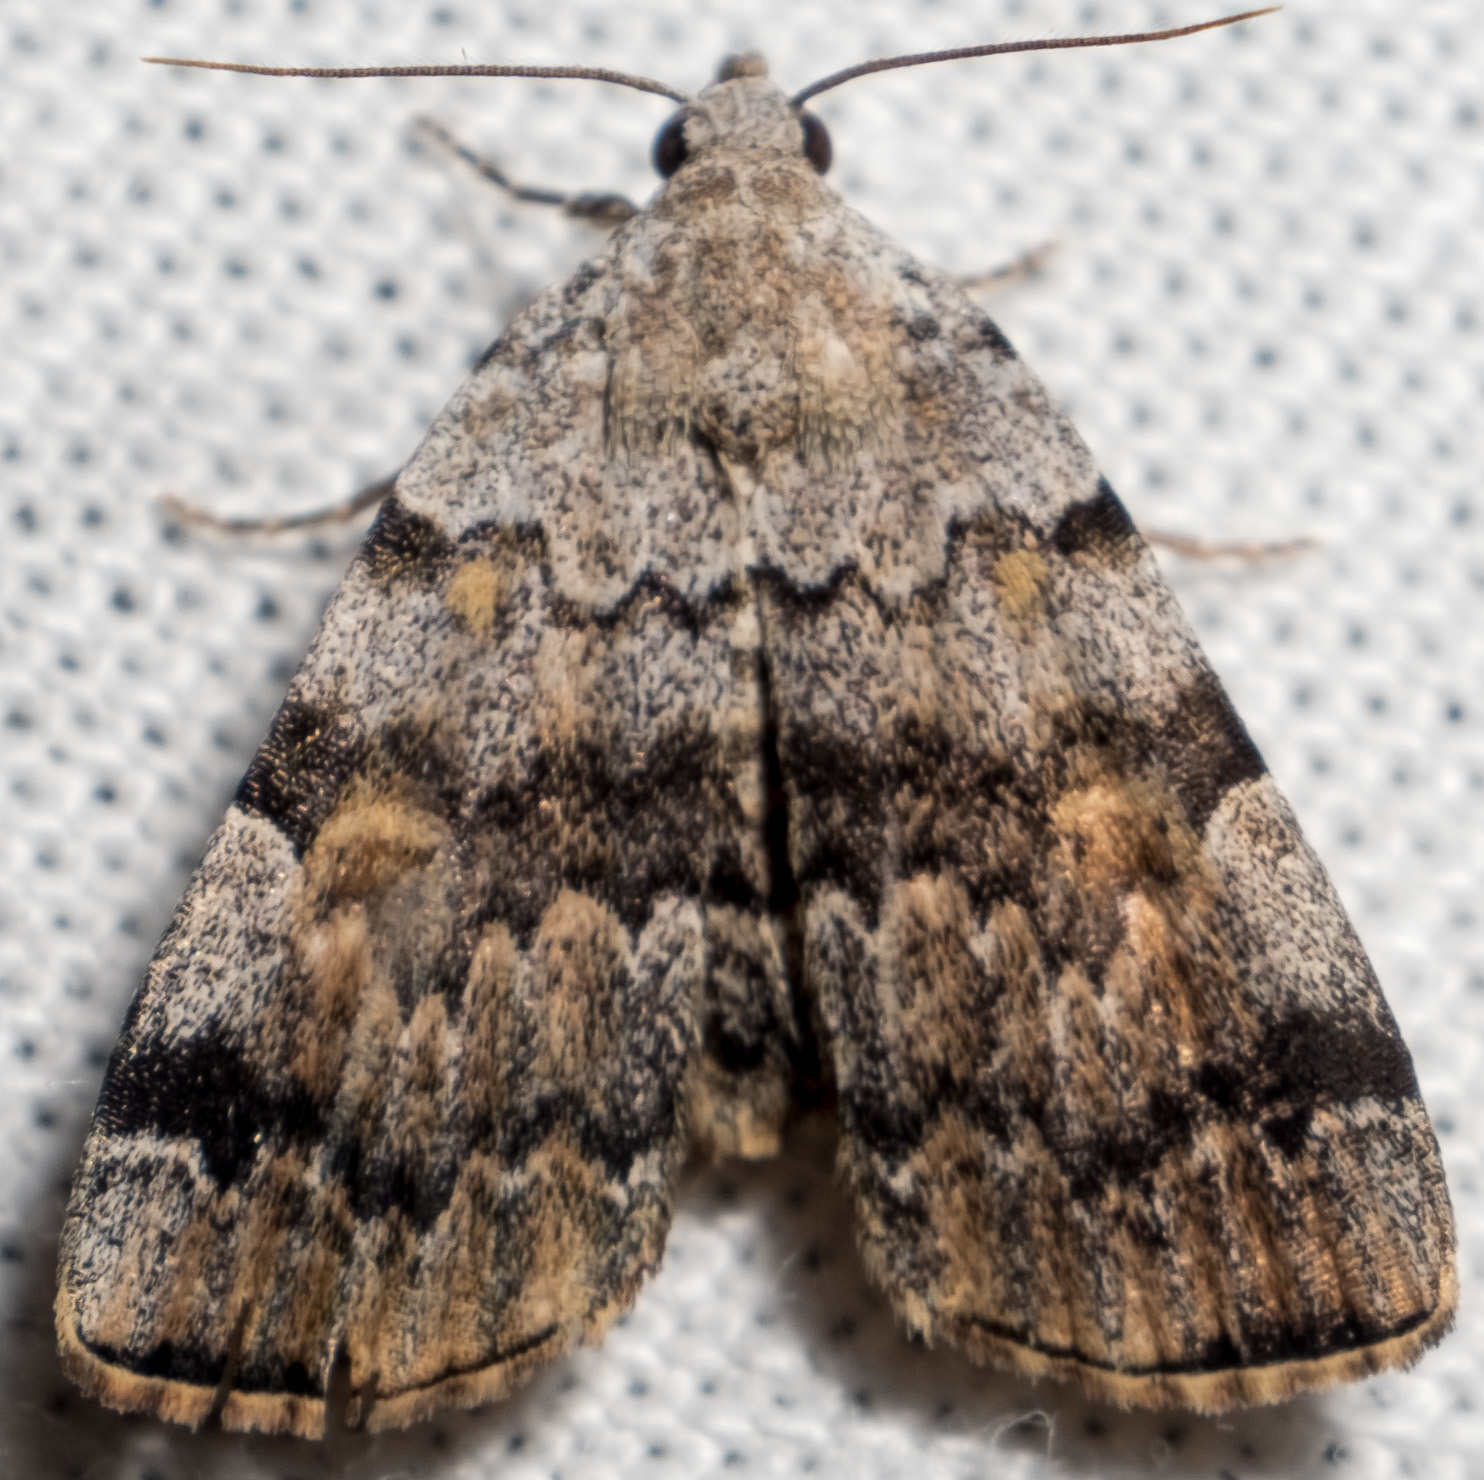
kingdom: Animalia
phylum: Arthropoda
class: Insecta
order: Lepidoptera
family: Erebidae
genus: Idia
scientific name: Idia americalis
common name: American idia moth
